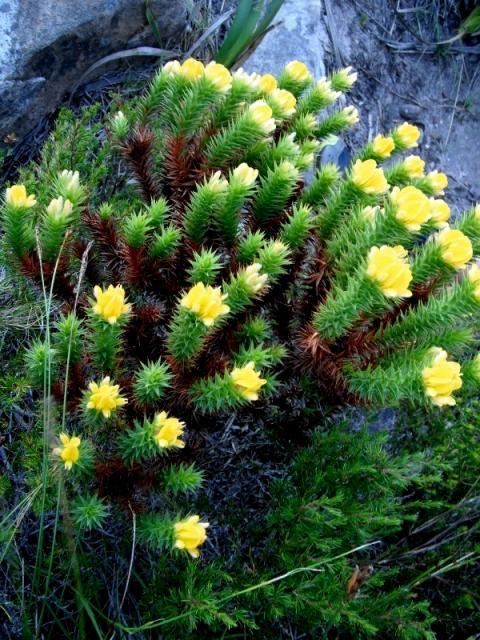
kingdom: Plantae
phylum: Tracheophyta
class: Magnoliopsida
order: Fabales
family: Fabaceae
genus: Aspalathus
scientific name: Aspalathus cordata
